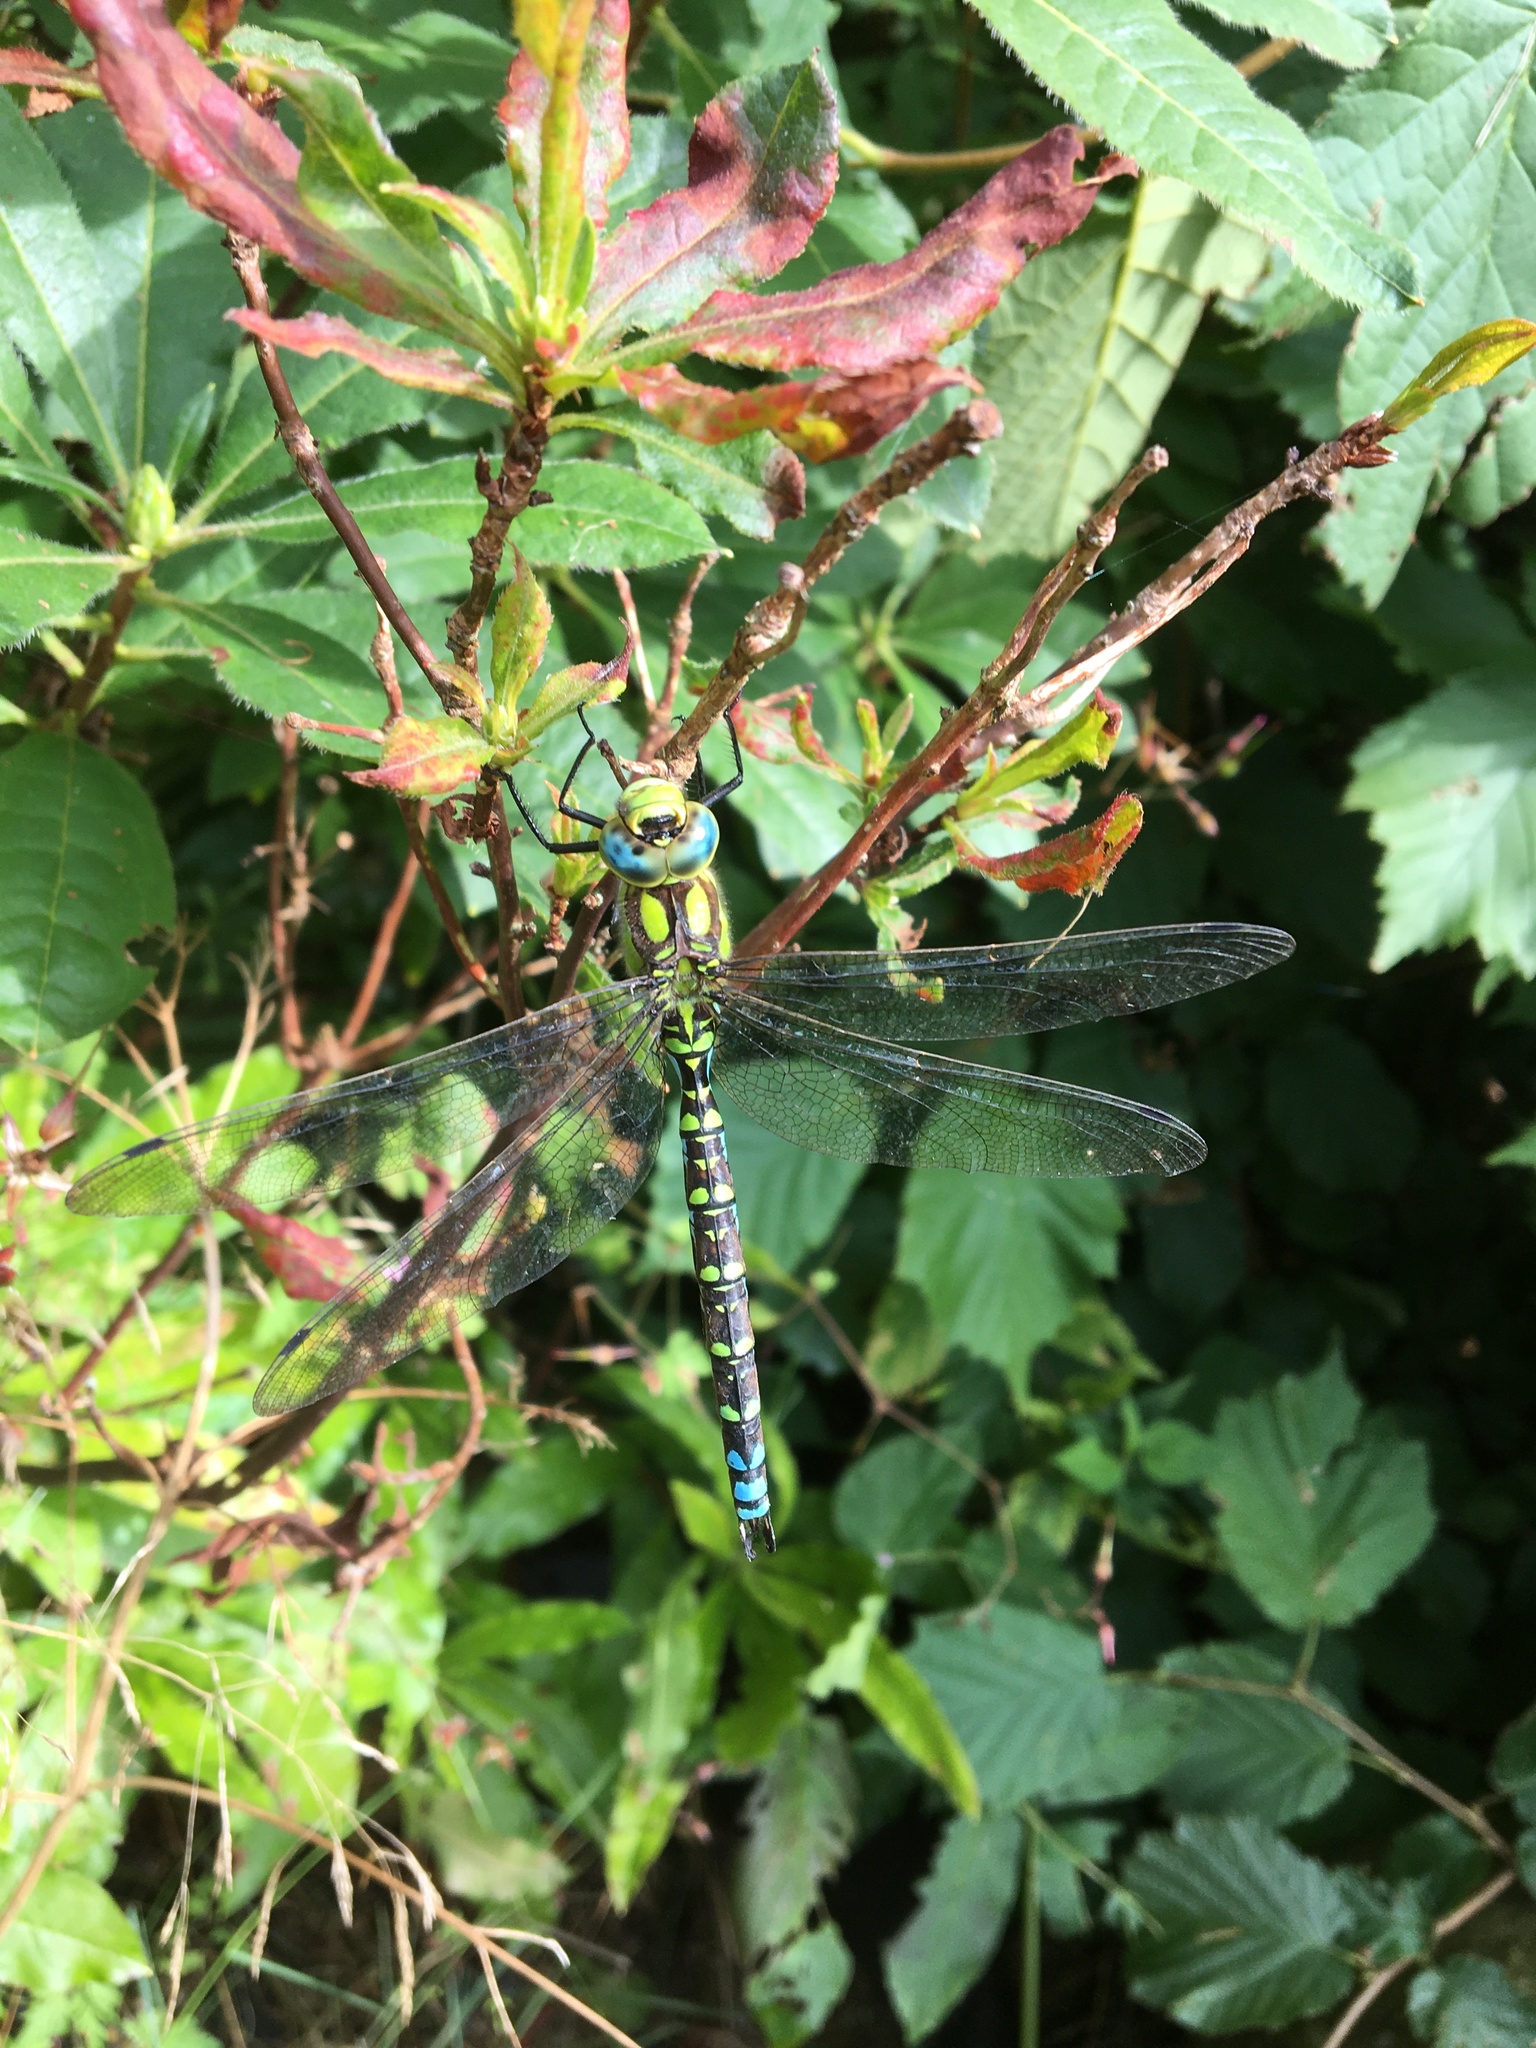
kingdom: Animalia
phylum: Arthropoda
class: Insecta
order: Odonata
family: Aeshnidae
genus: Aeshna
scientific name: Aeshna cyanea
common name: Southern hawker
